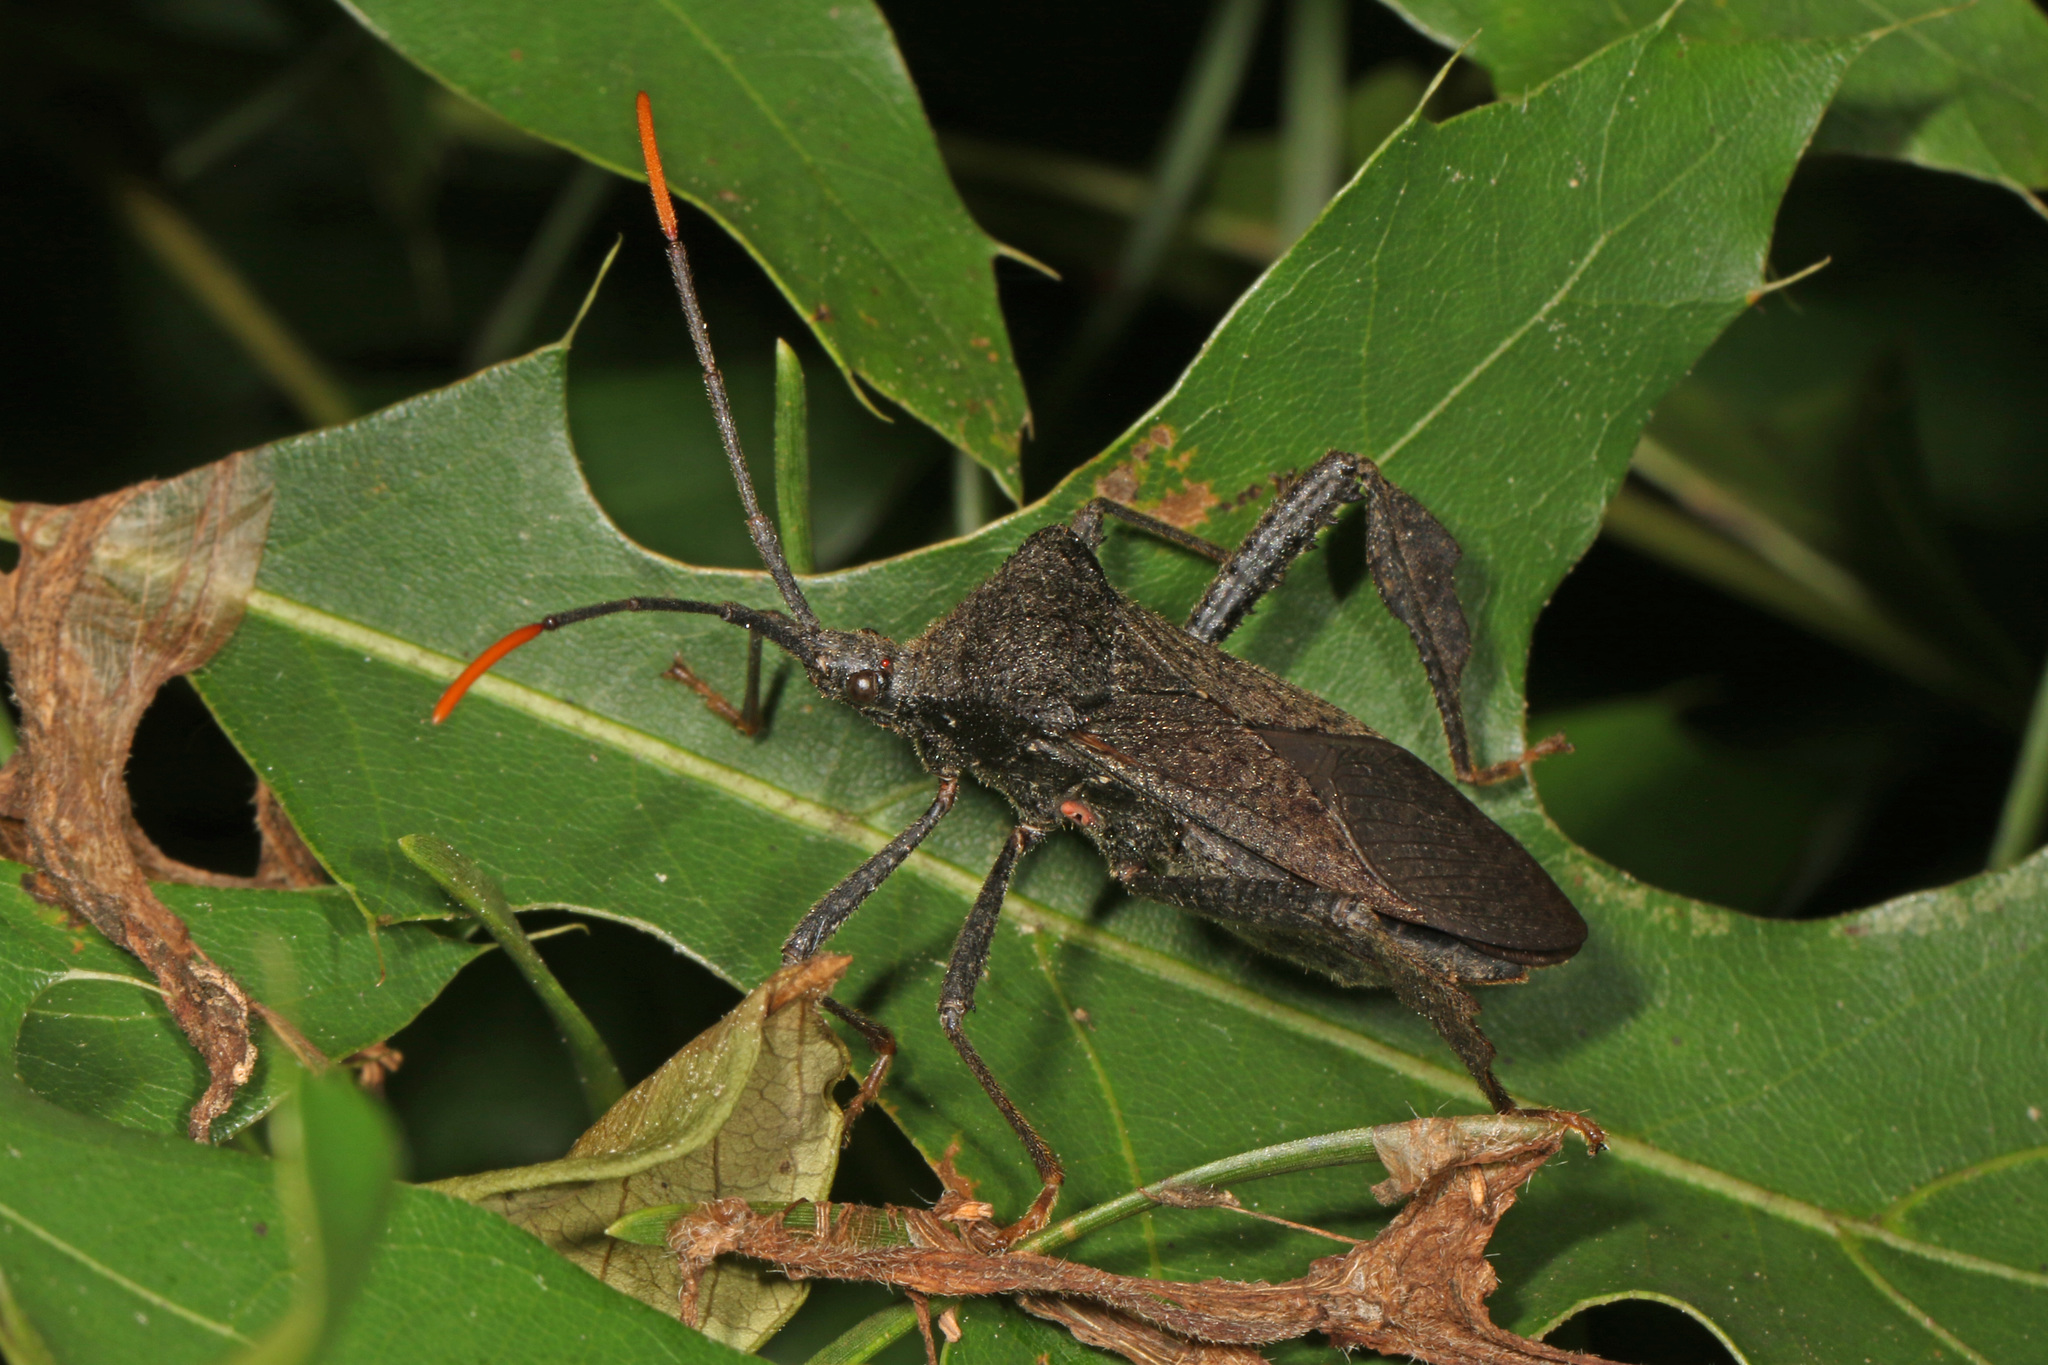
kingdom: Animalia
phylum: Arthropoda
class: Insecta
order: Hemiptera
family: Coreidae
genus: Acanthocephala
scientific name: Acanthocephala terminalis
